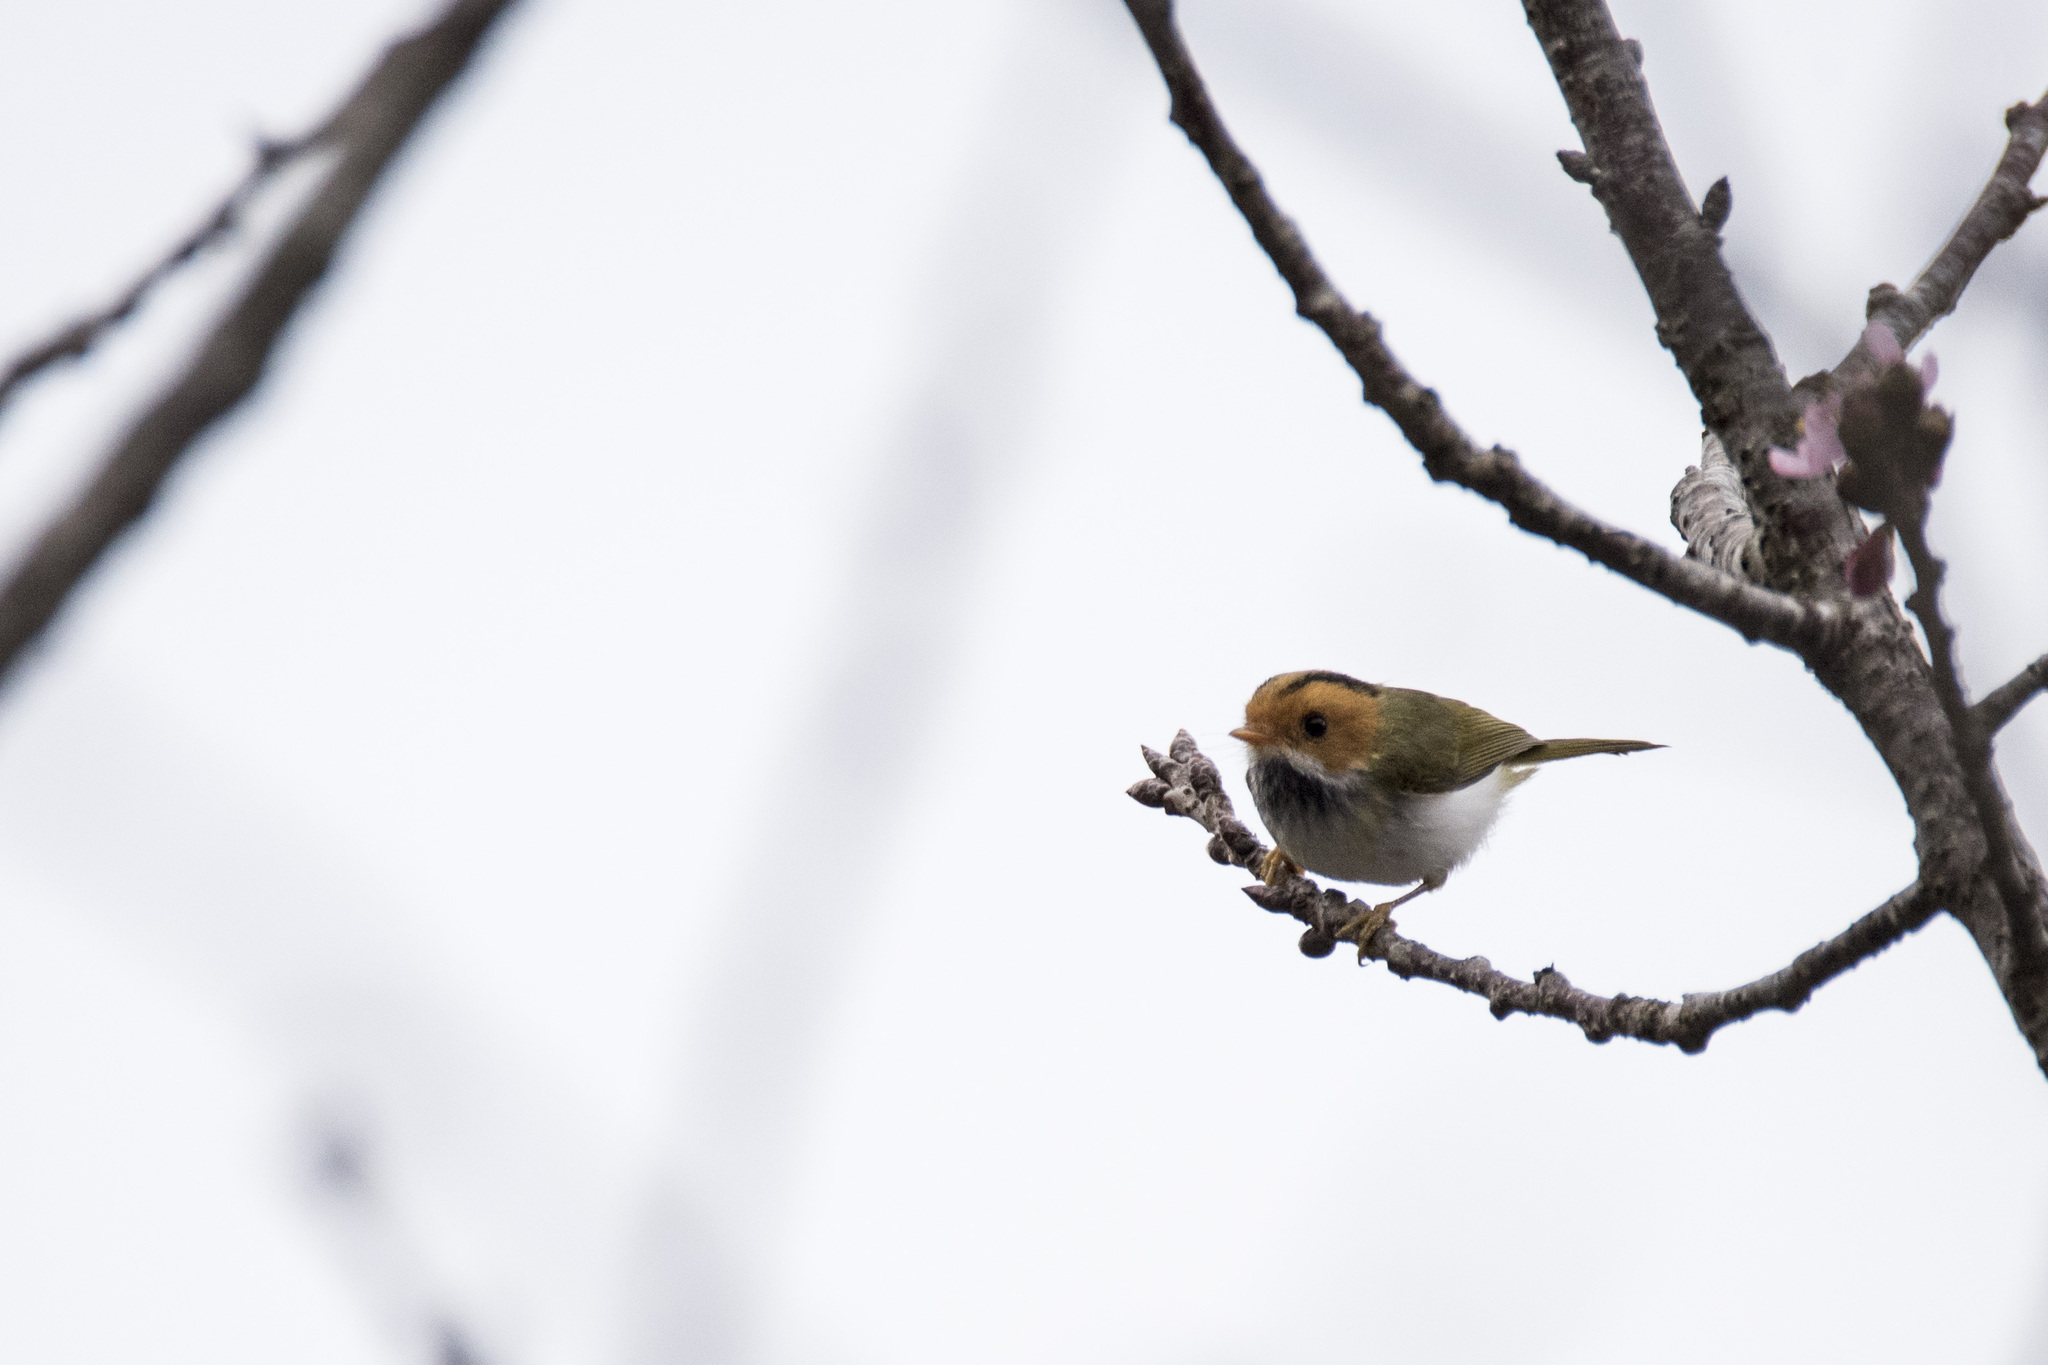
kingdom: Animalia
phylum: Chordata
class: Aves
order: Passeriformes
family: Cettiidae
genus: Abroscopus
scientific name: Abroscopus albogularis
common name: Rufous-faced warbler
